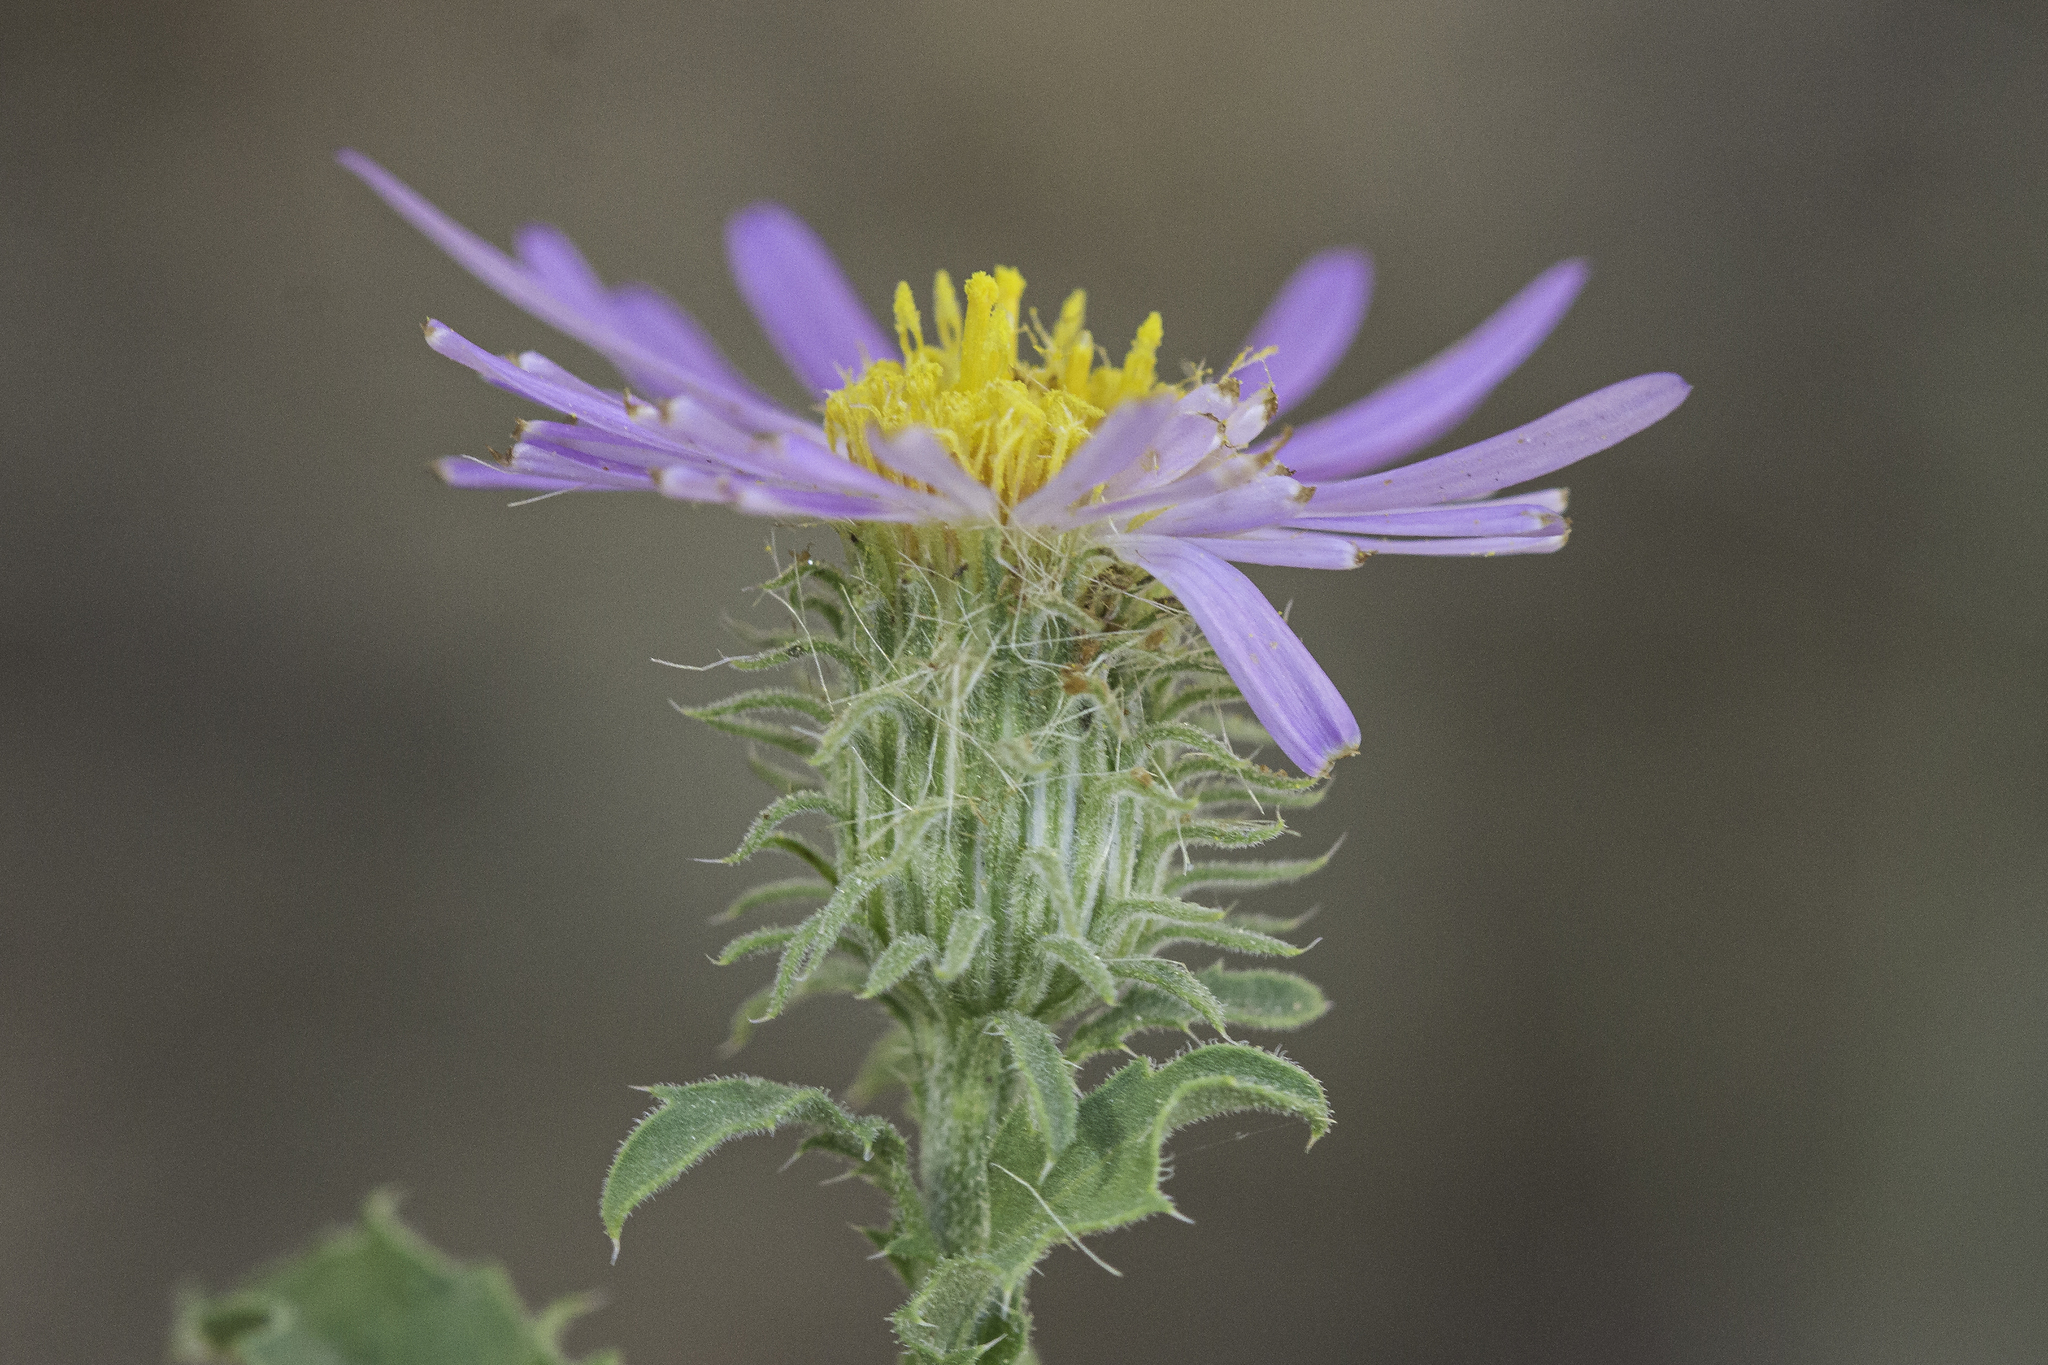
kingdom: Plantae
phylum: Tracheophyta
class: Magnoliopsida
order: Asterales
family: Asteraceae
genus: Dieteria
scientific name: Dieteria asteroides
